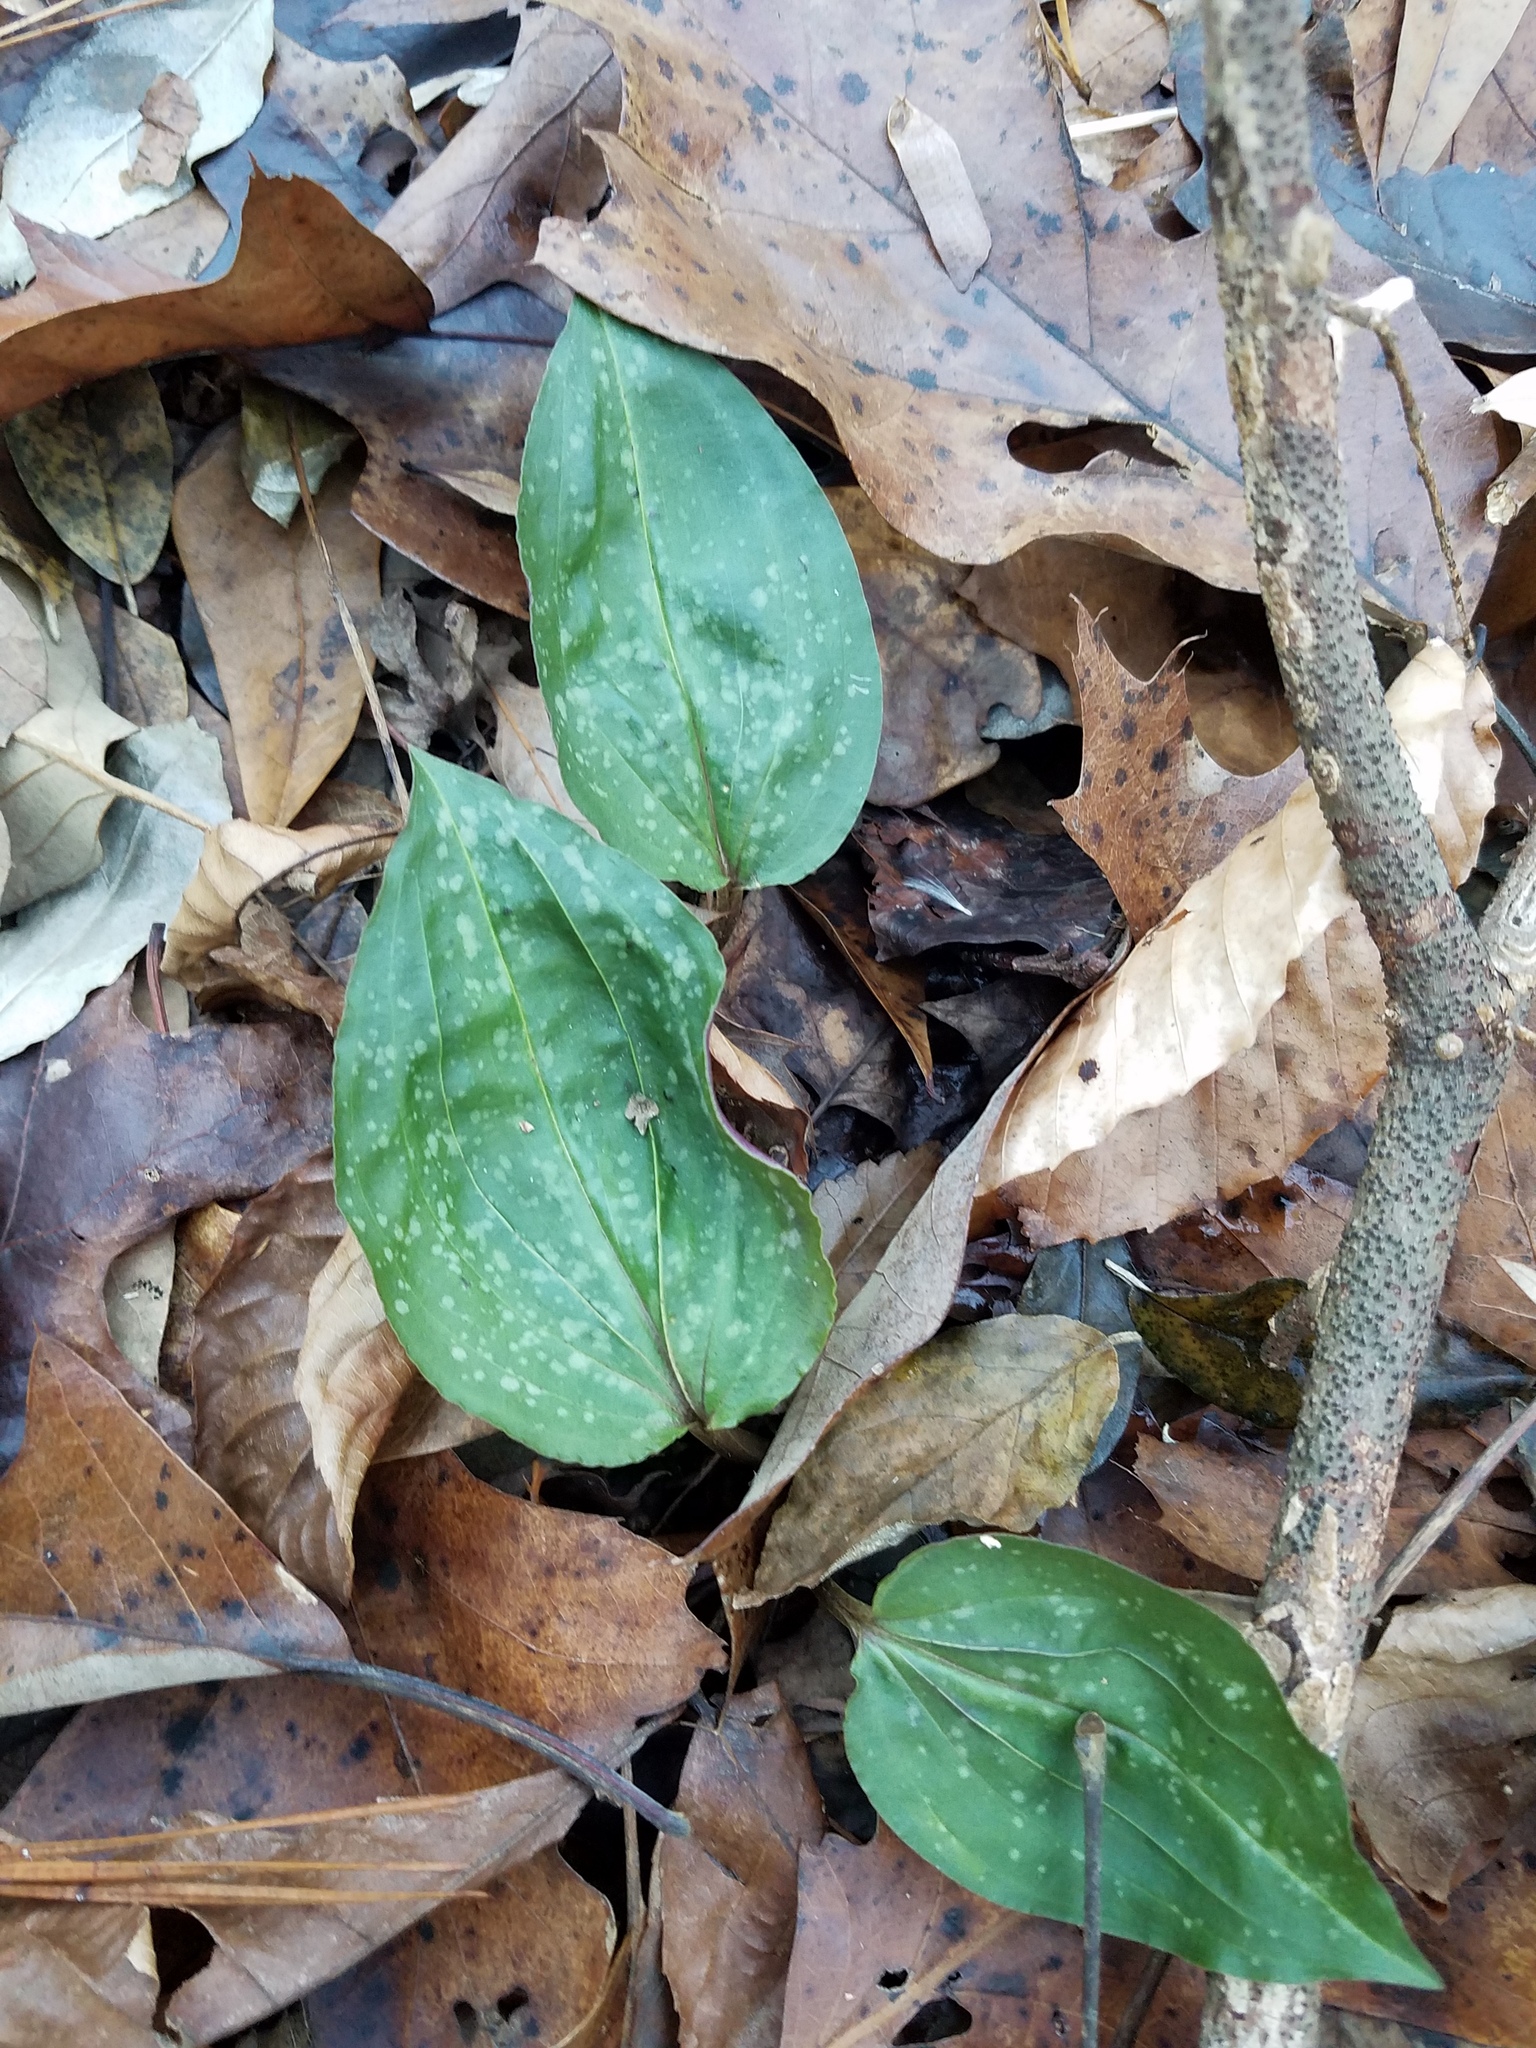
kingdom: Plantae
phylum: Tracheophyta
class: Liliopsida
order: Asparagales
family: Orchidaceae
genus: Tipularia
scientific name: Tipularia discolor
